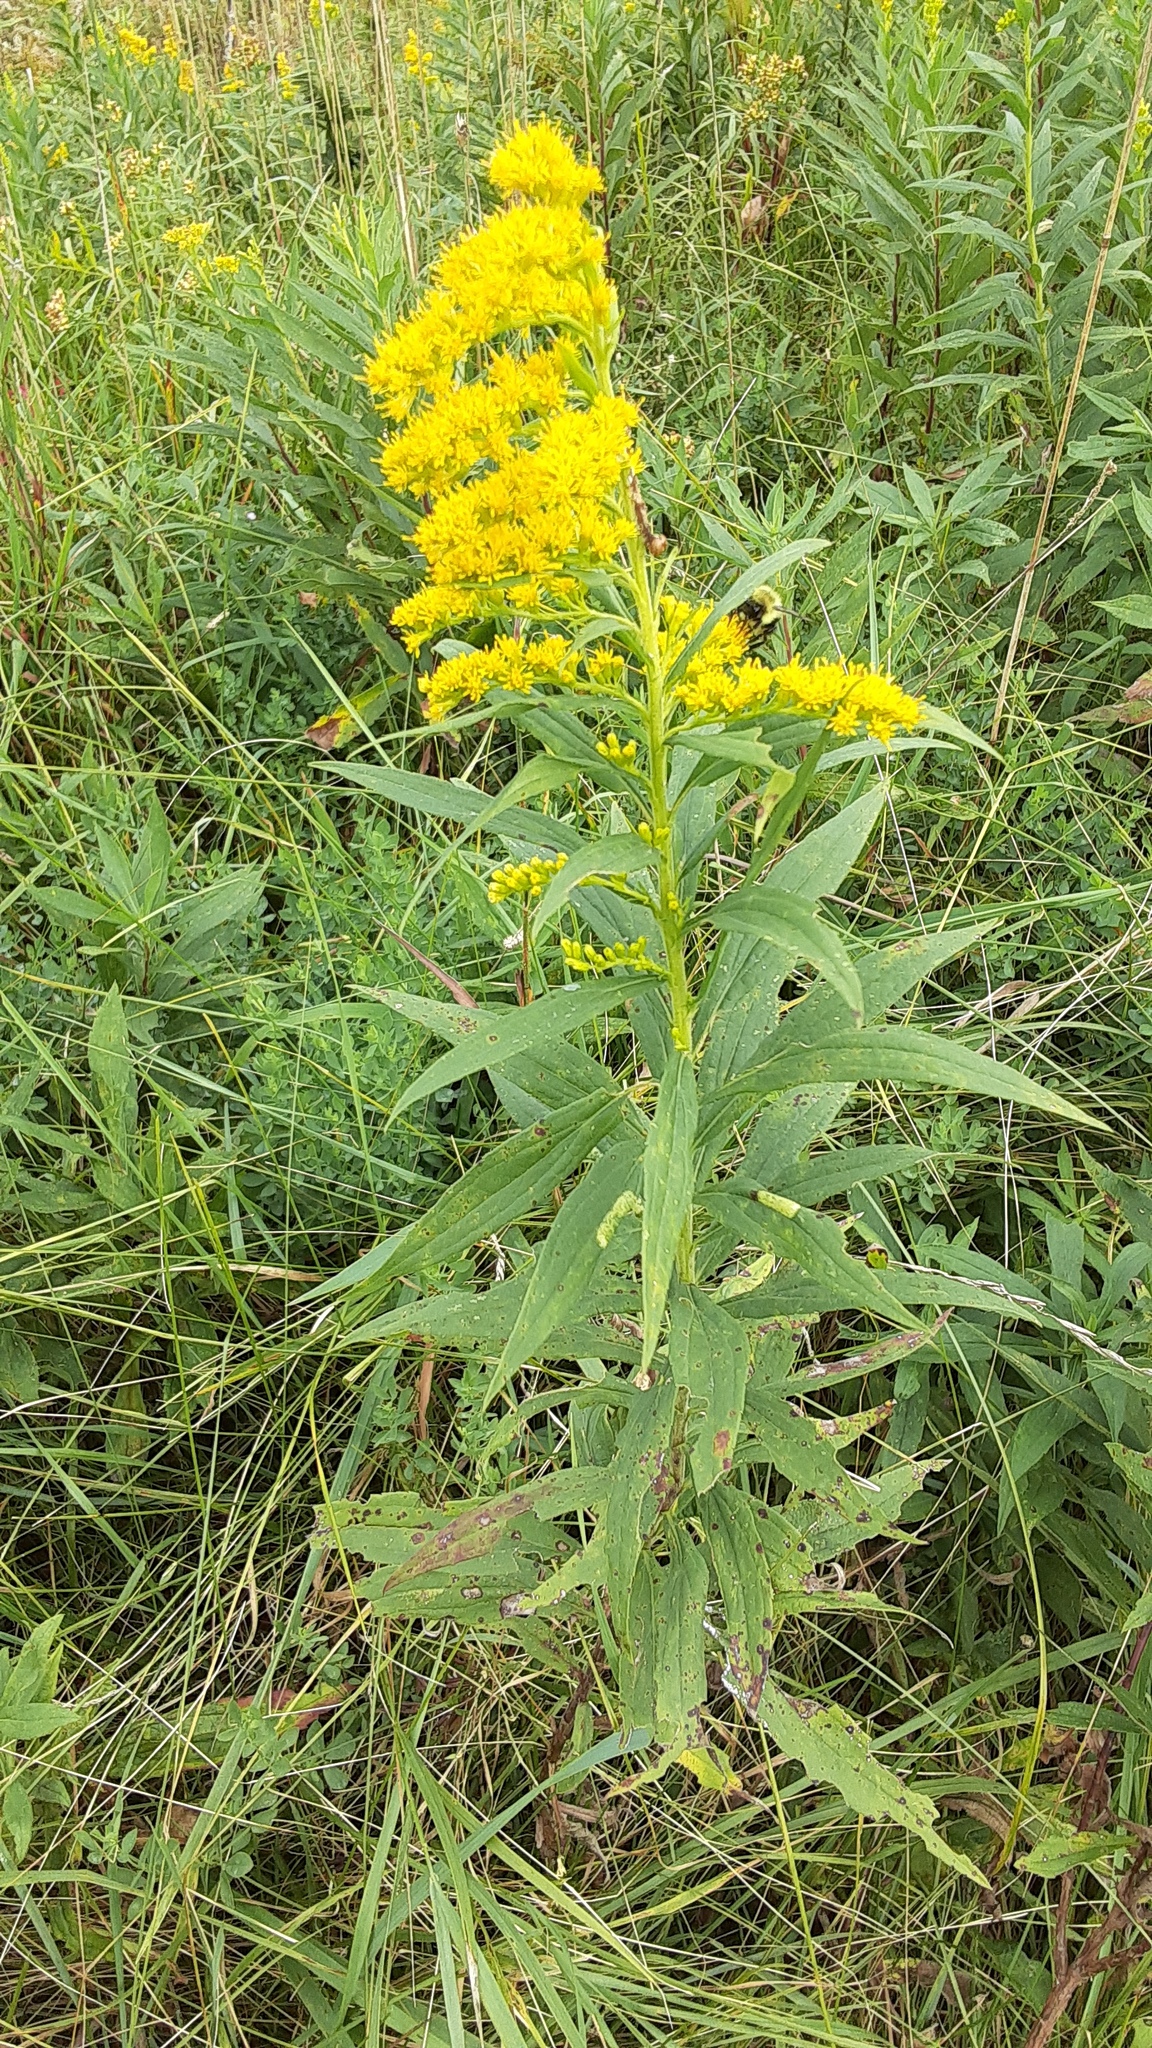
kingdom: Plantae
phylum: Tracheophyta
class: Magnoliopsida
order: Asterales
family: Asteraceae
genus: Solidago
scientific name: Solidago altissima
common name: Late goldenrod
